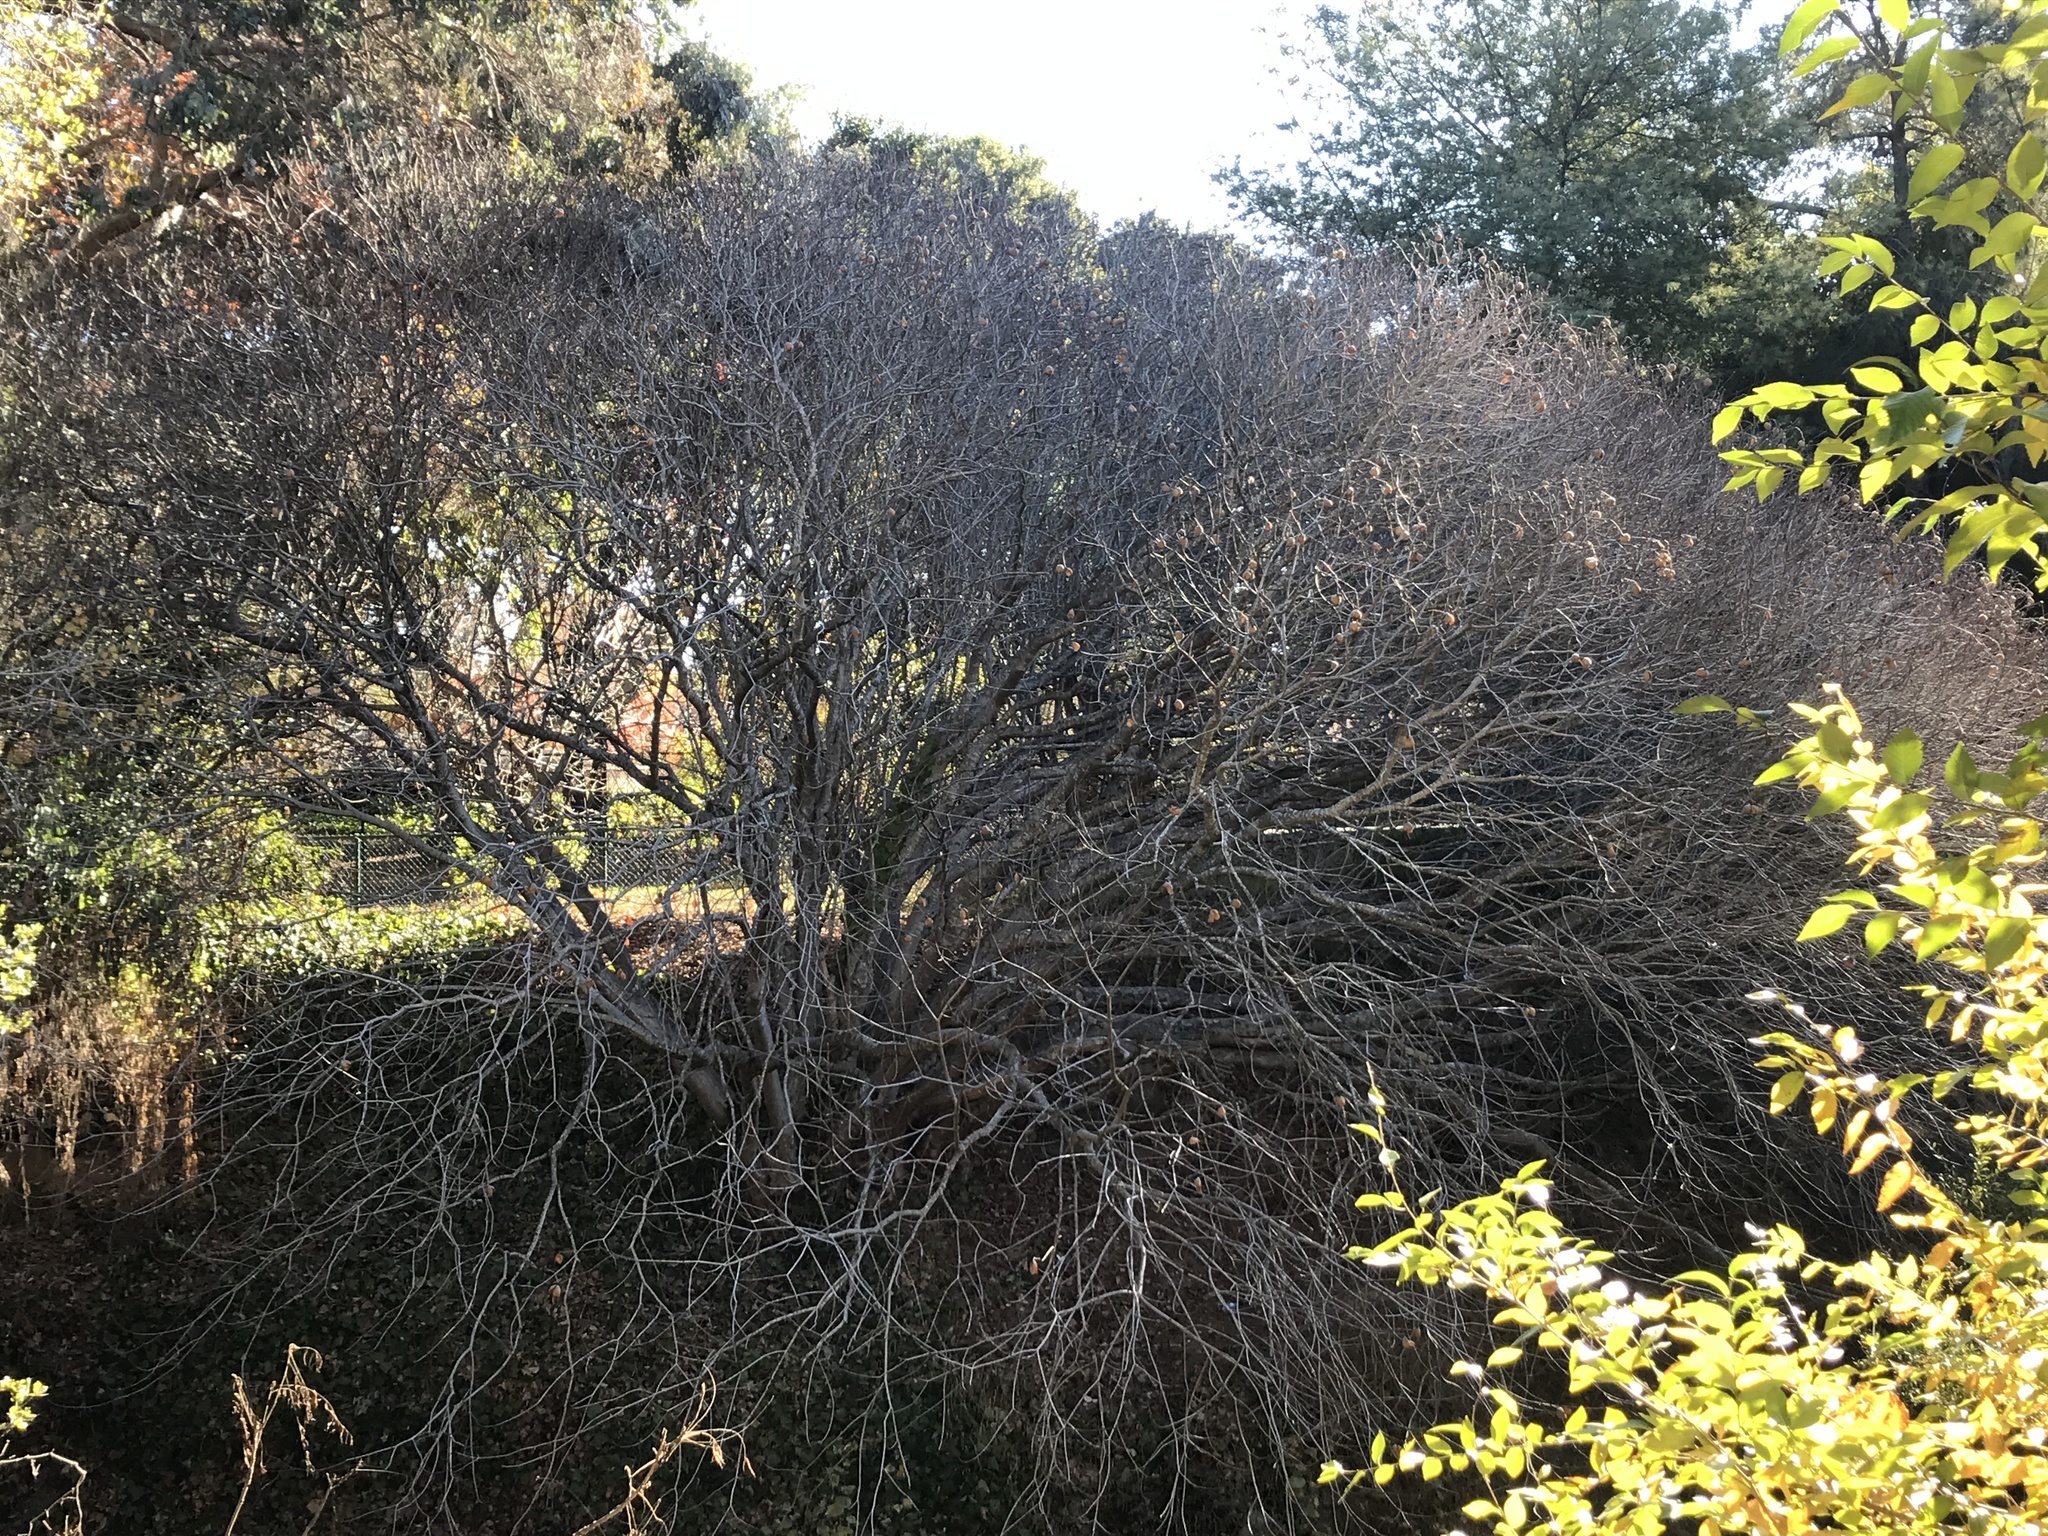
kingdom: Plantae
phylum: Tracheophyta
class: Magnoliopsida
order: Sapindales
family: Sapindaceae
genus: Aesculus
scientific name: Aesculus californica
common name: California buckeye
